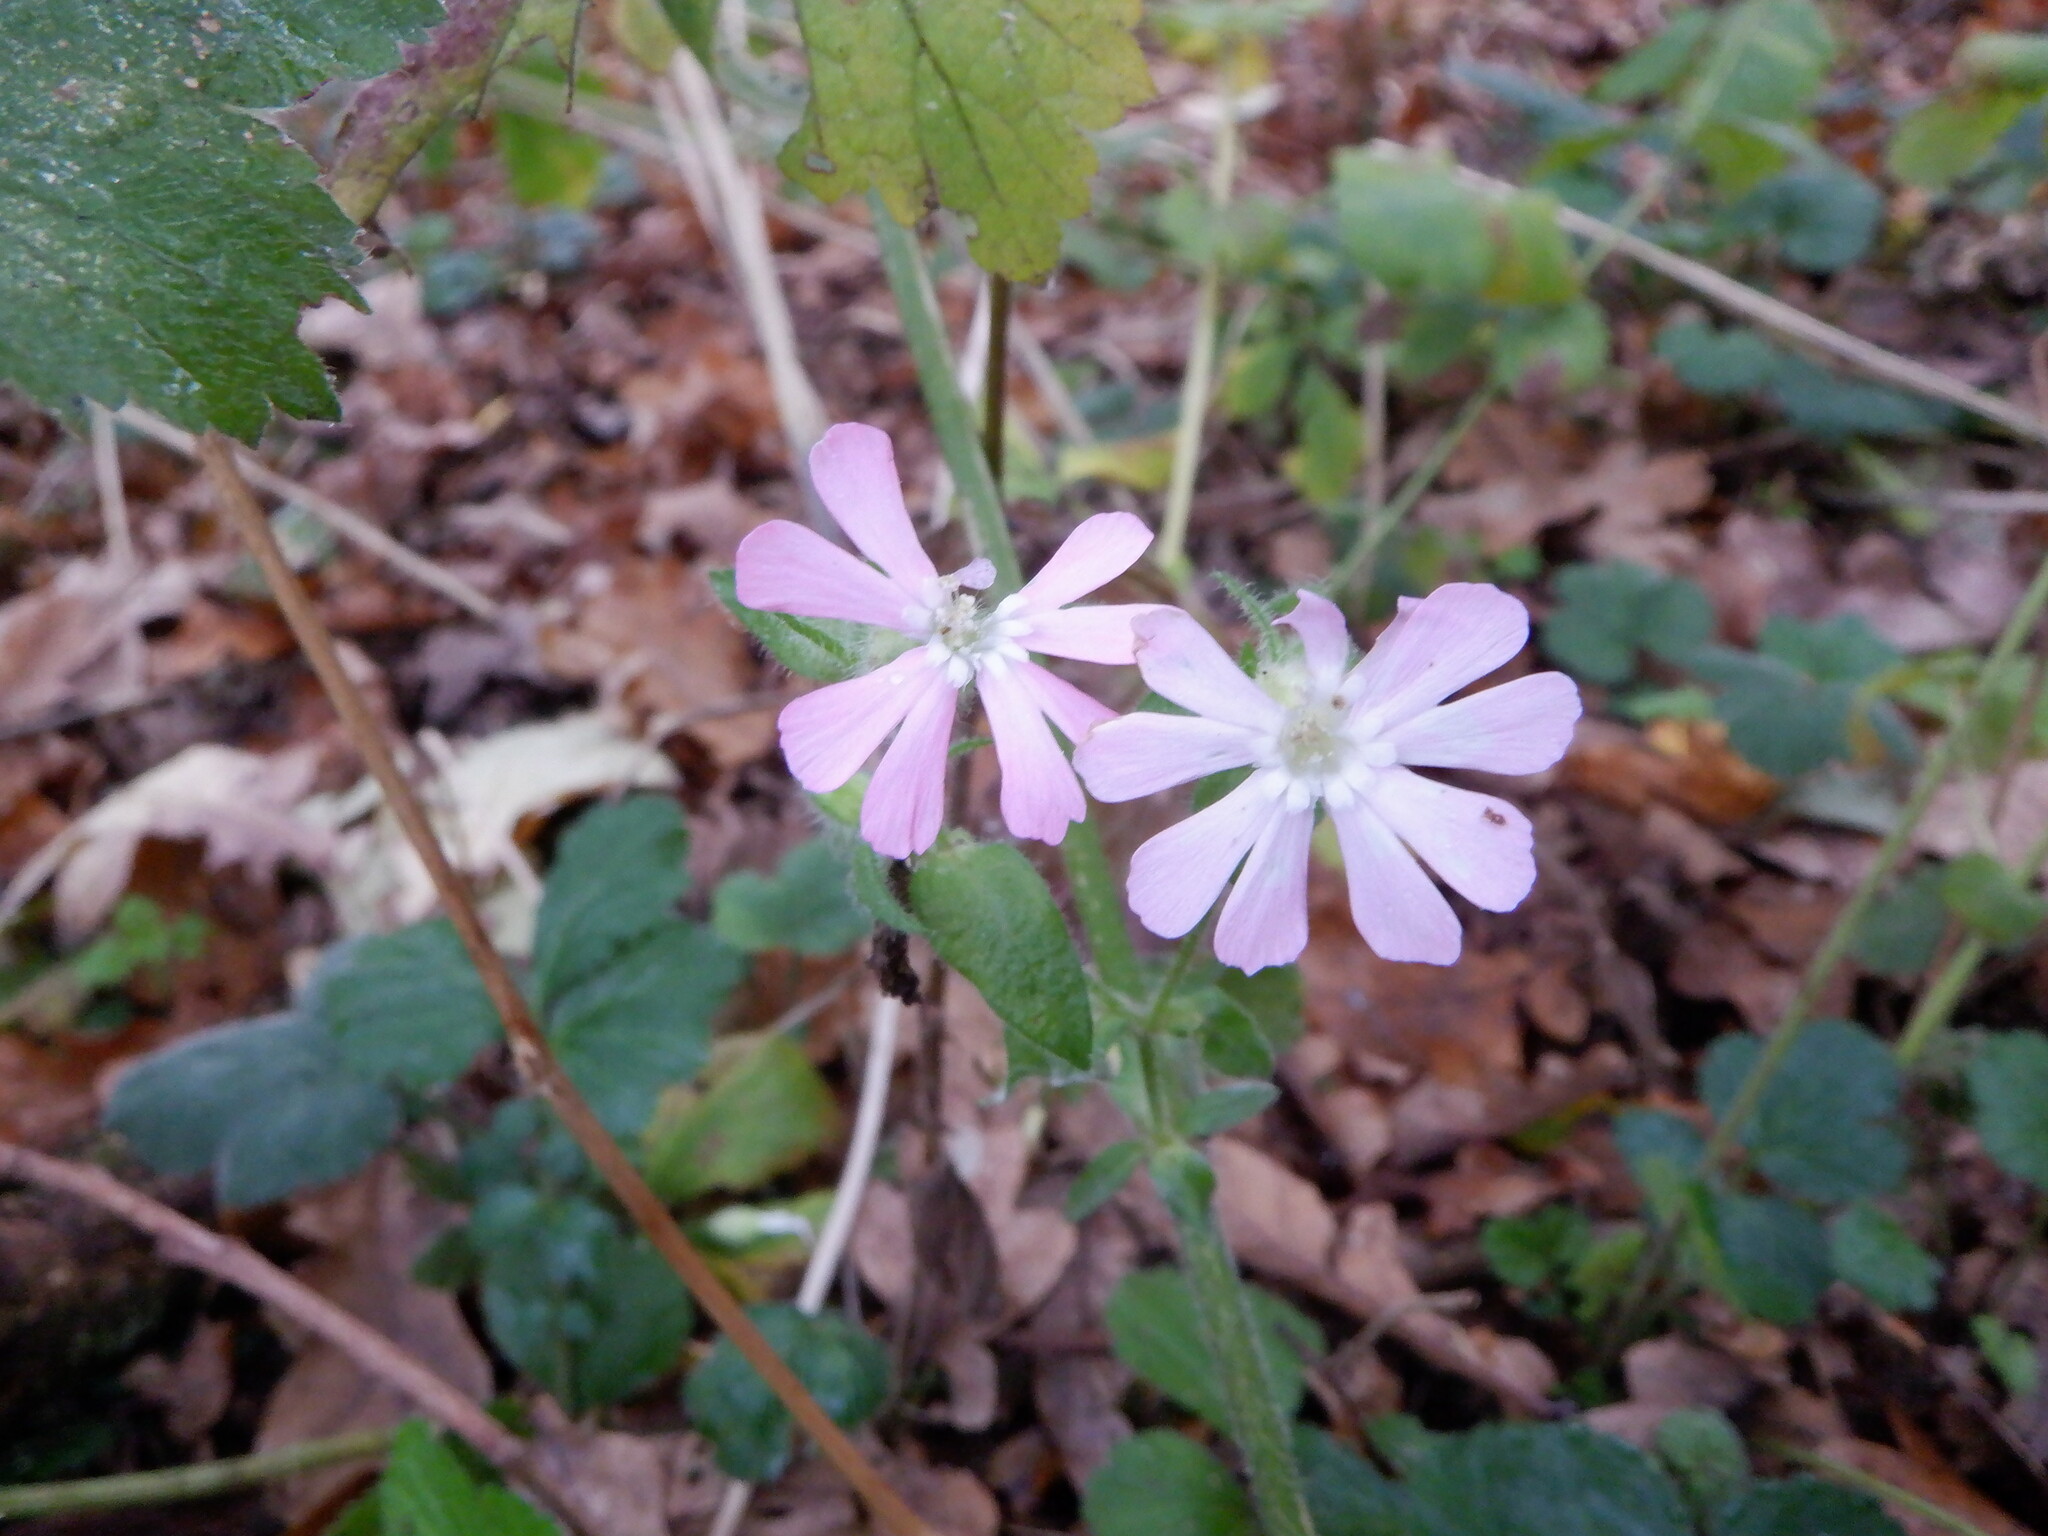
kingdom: Plantae
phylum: Tracheophyta
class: Magnoliopsida
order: Caryophyllales
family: Caryophyllaceae
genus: Silene
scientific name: Silene dioica
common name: Red campion
